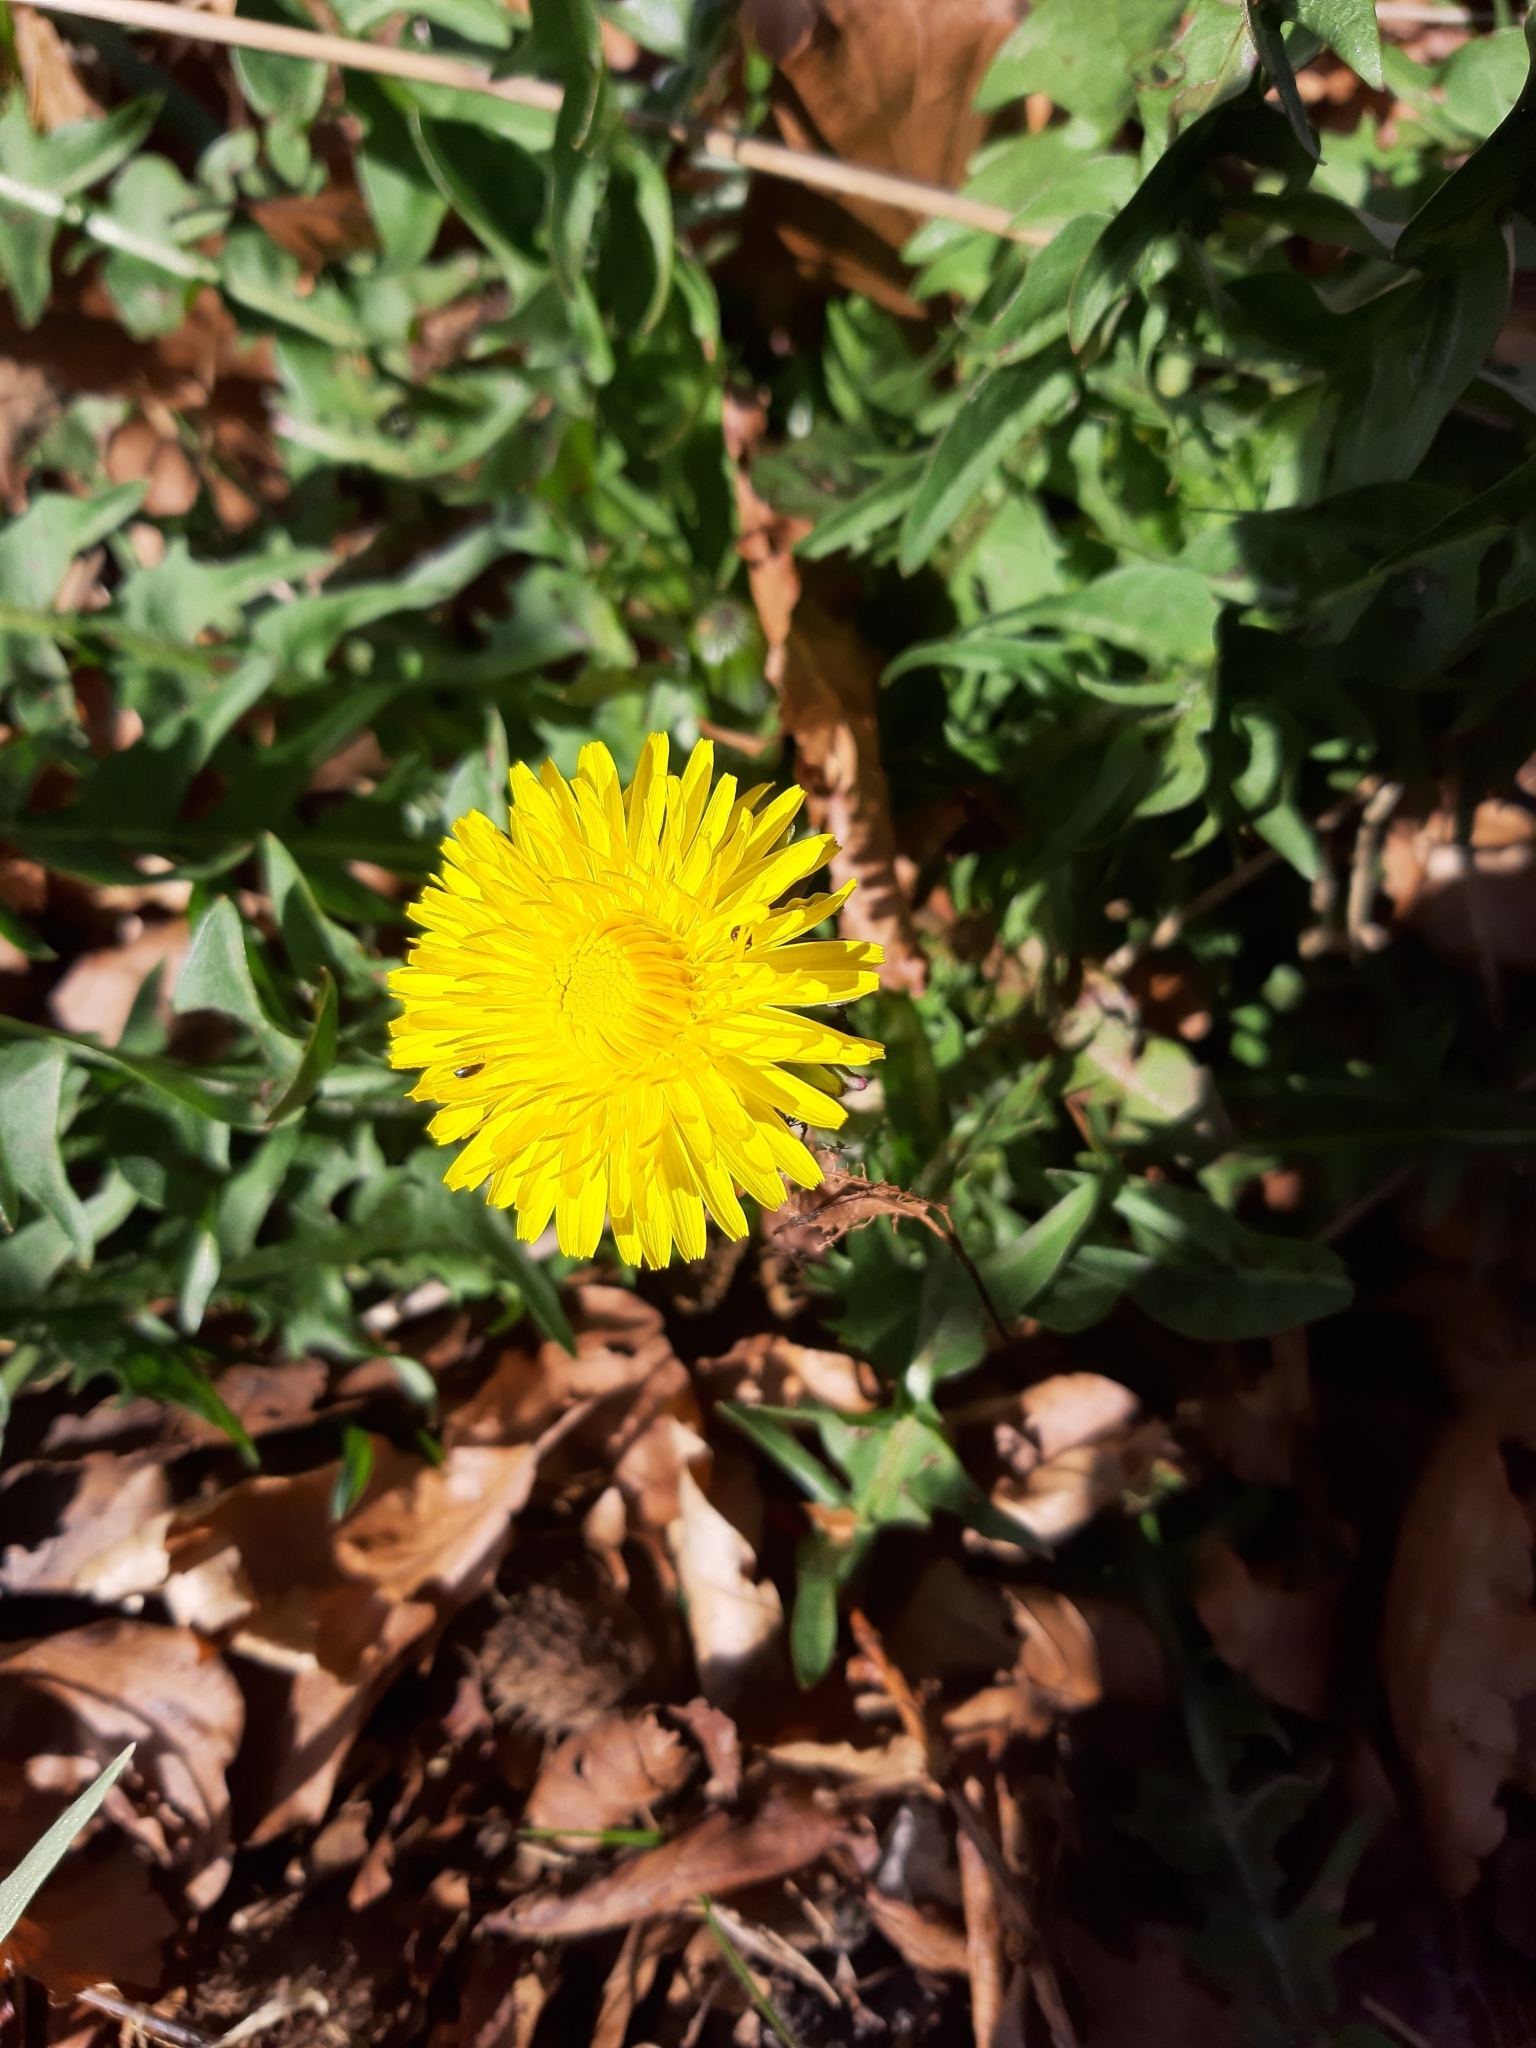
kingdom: Plantae
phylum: Tracheophyta
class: Magnoliopsida
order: Asterales
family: Asteraceae
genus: Taraxacum
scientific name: Taraxacum officinale
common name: Common dandelion
